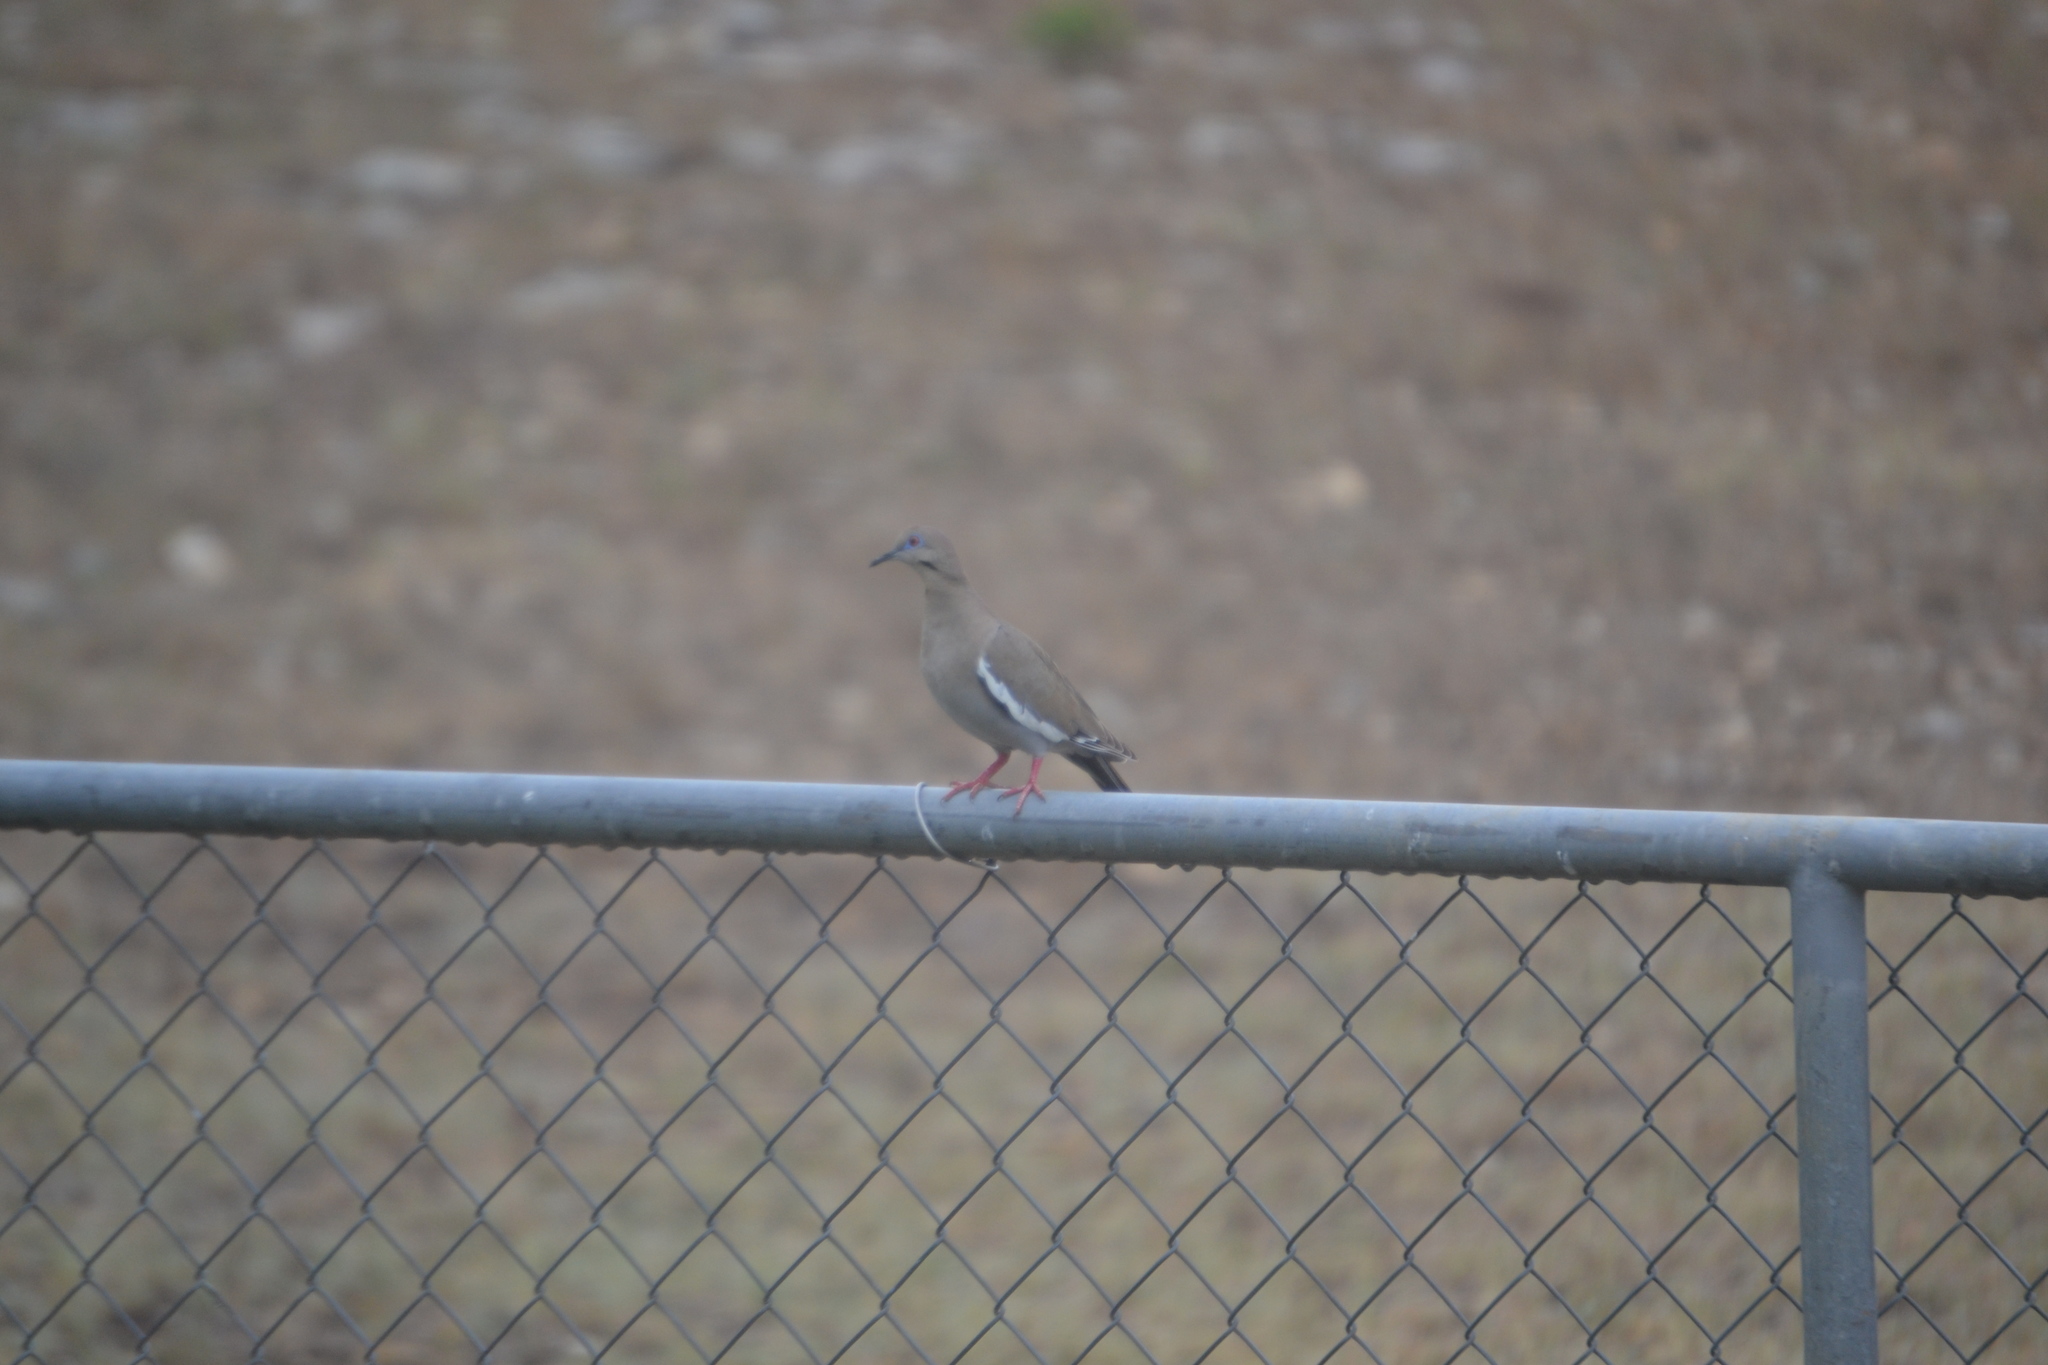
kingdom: Animalia
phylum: Chordata
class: Aves
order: Columbiformes
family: Columbidae
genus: Zenaida
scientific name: Zenaida asiatica
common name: White-winged dove
